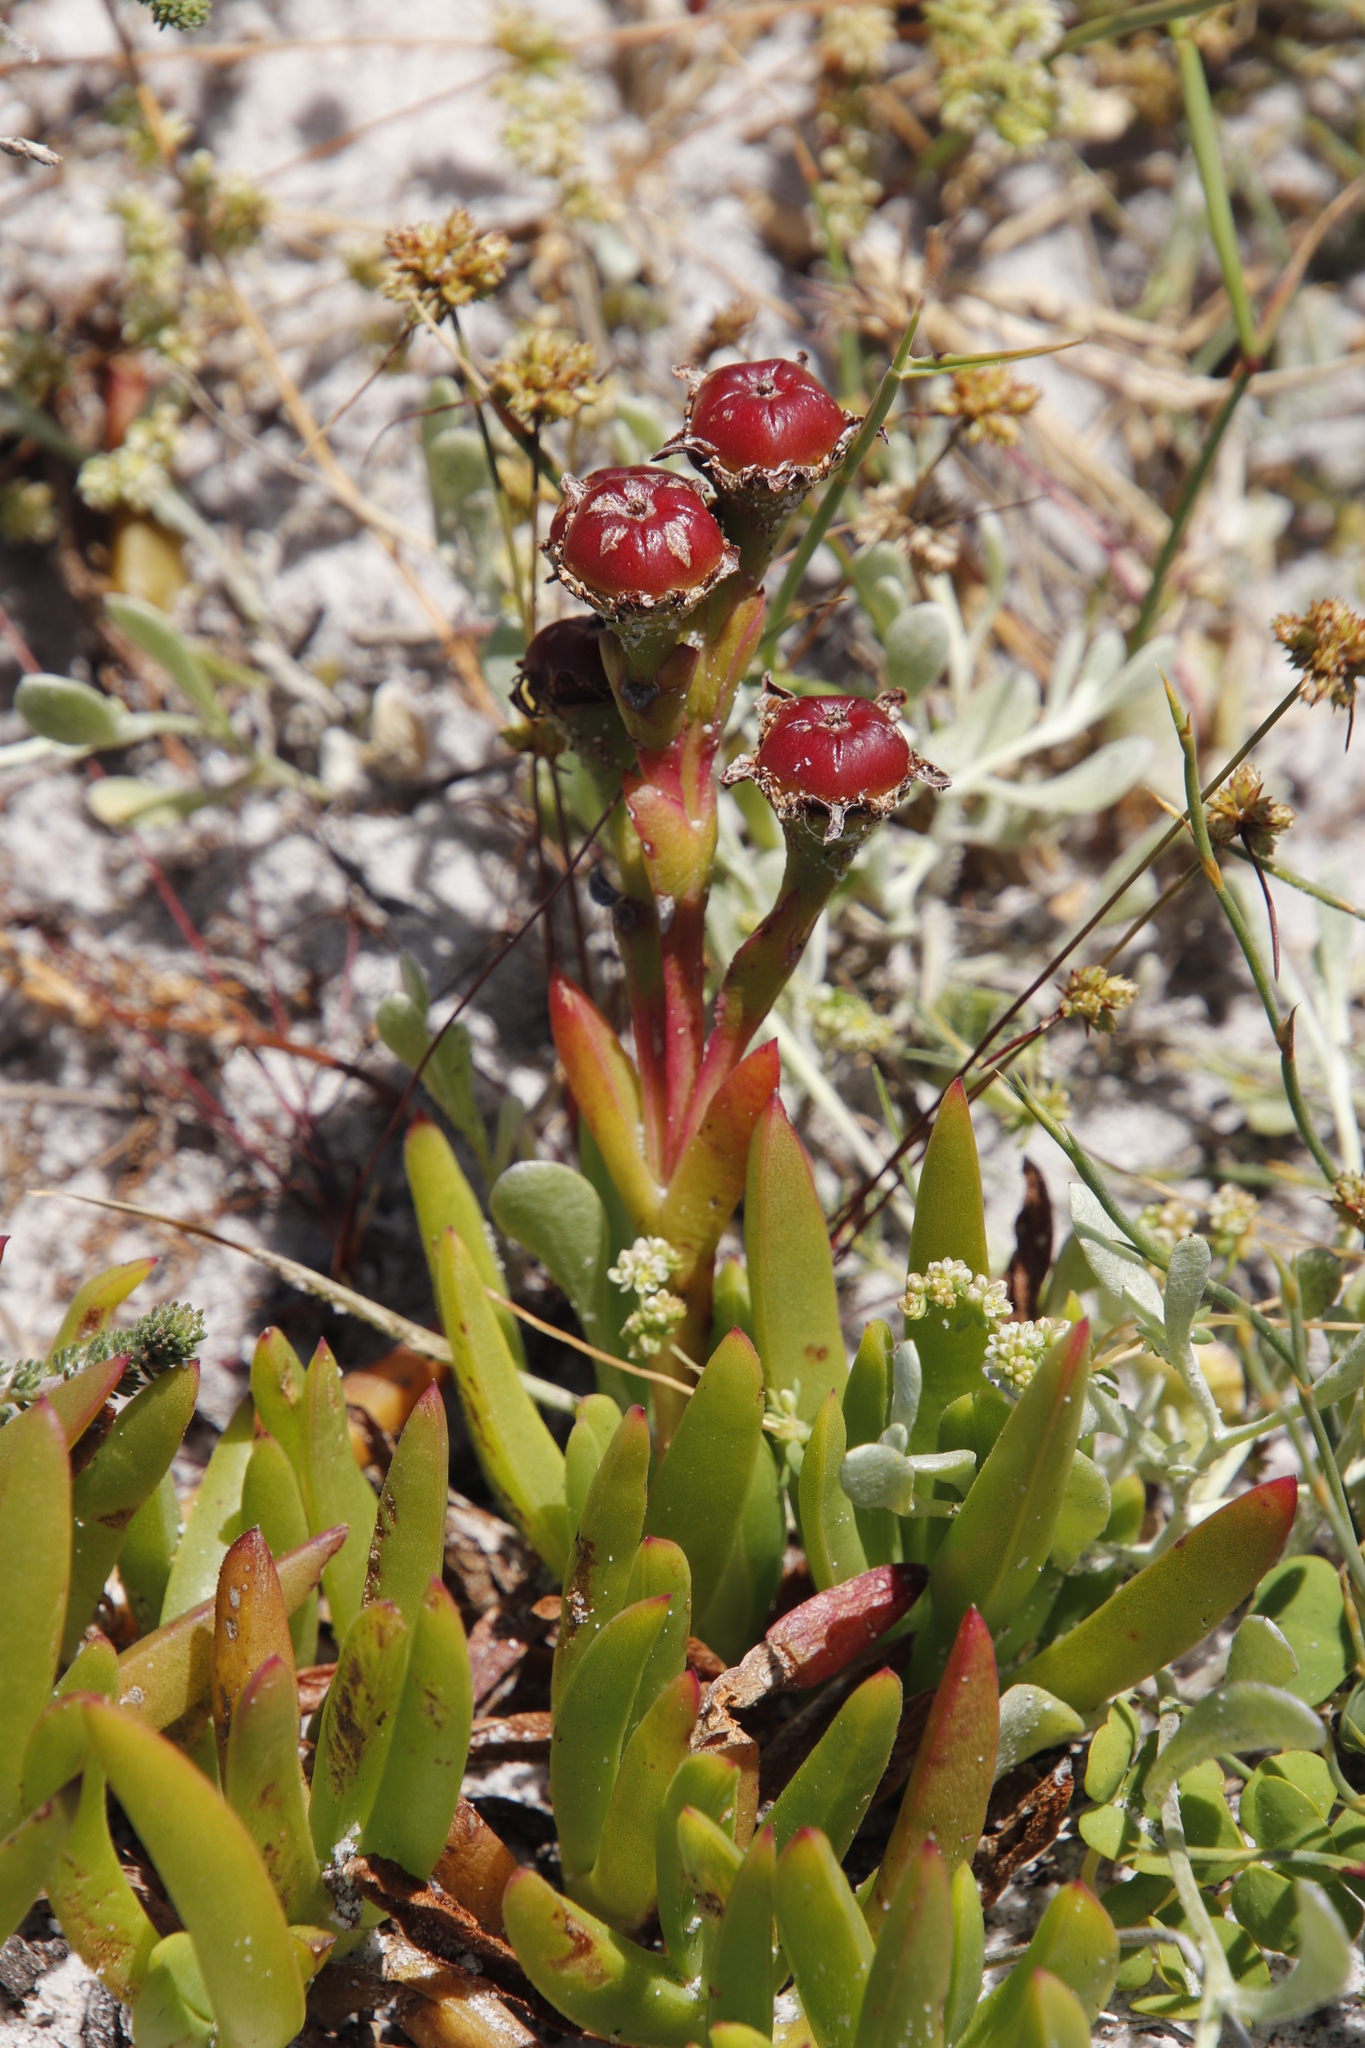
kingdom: Plantae
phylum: Tracheophyta
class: Magnoliopsida
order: Caryophyllales
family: Aizoaceae
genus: Ruschia
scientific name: Ruschia sarmentosa
